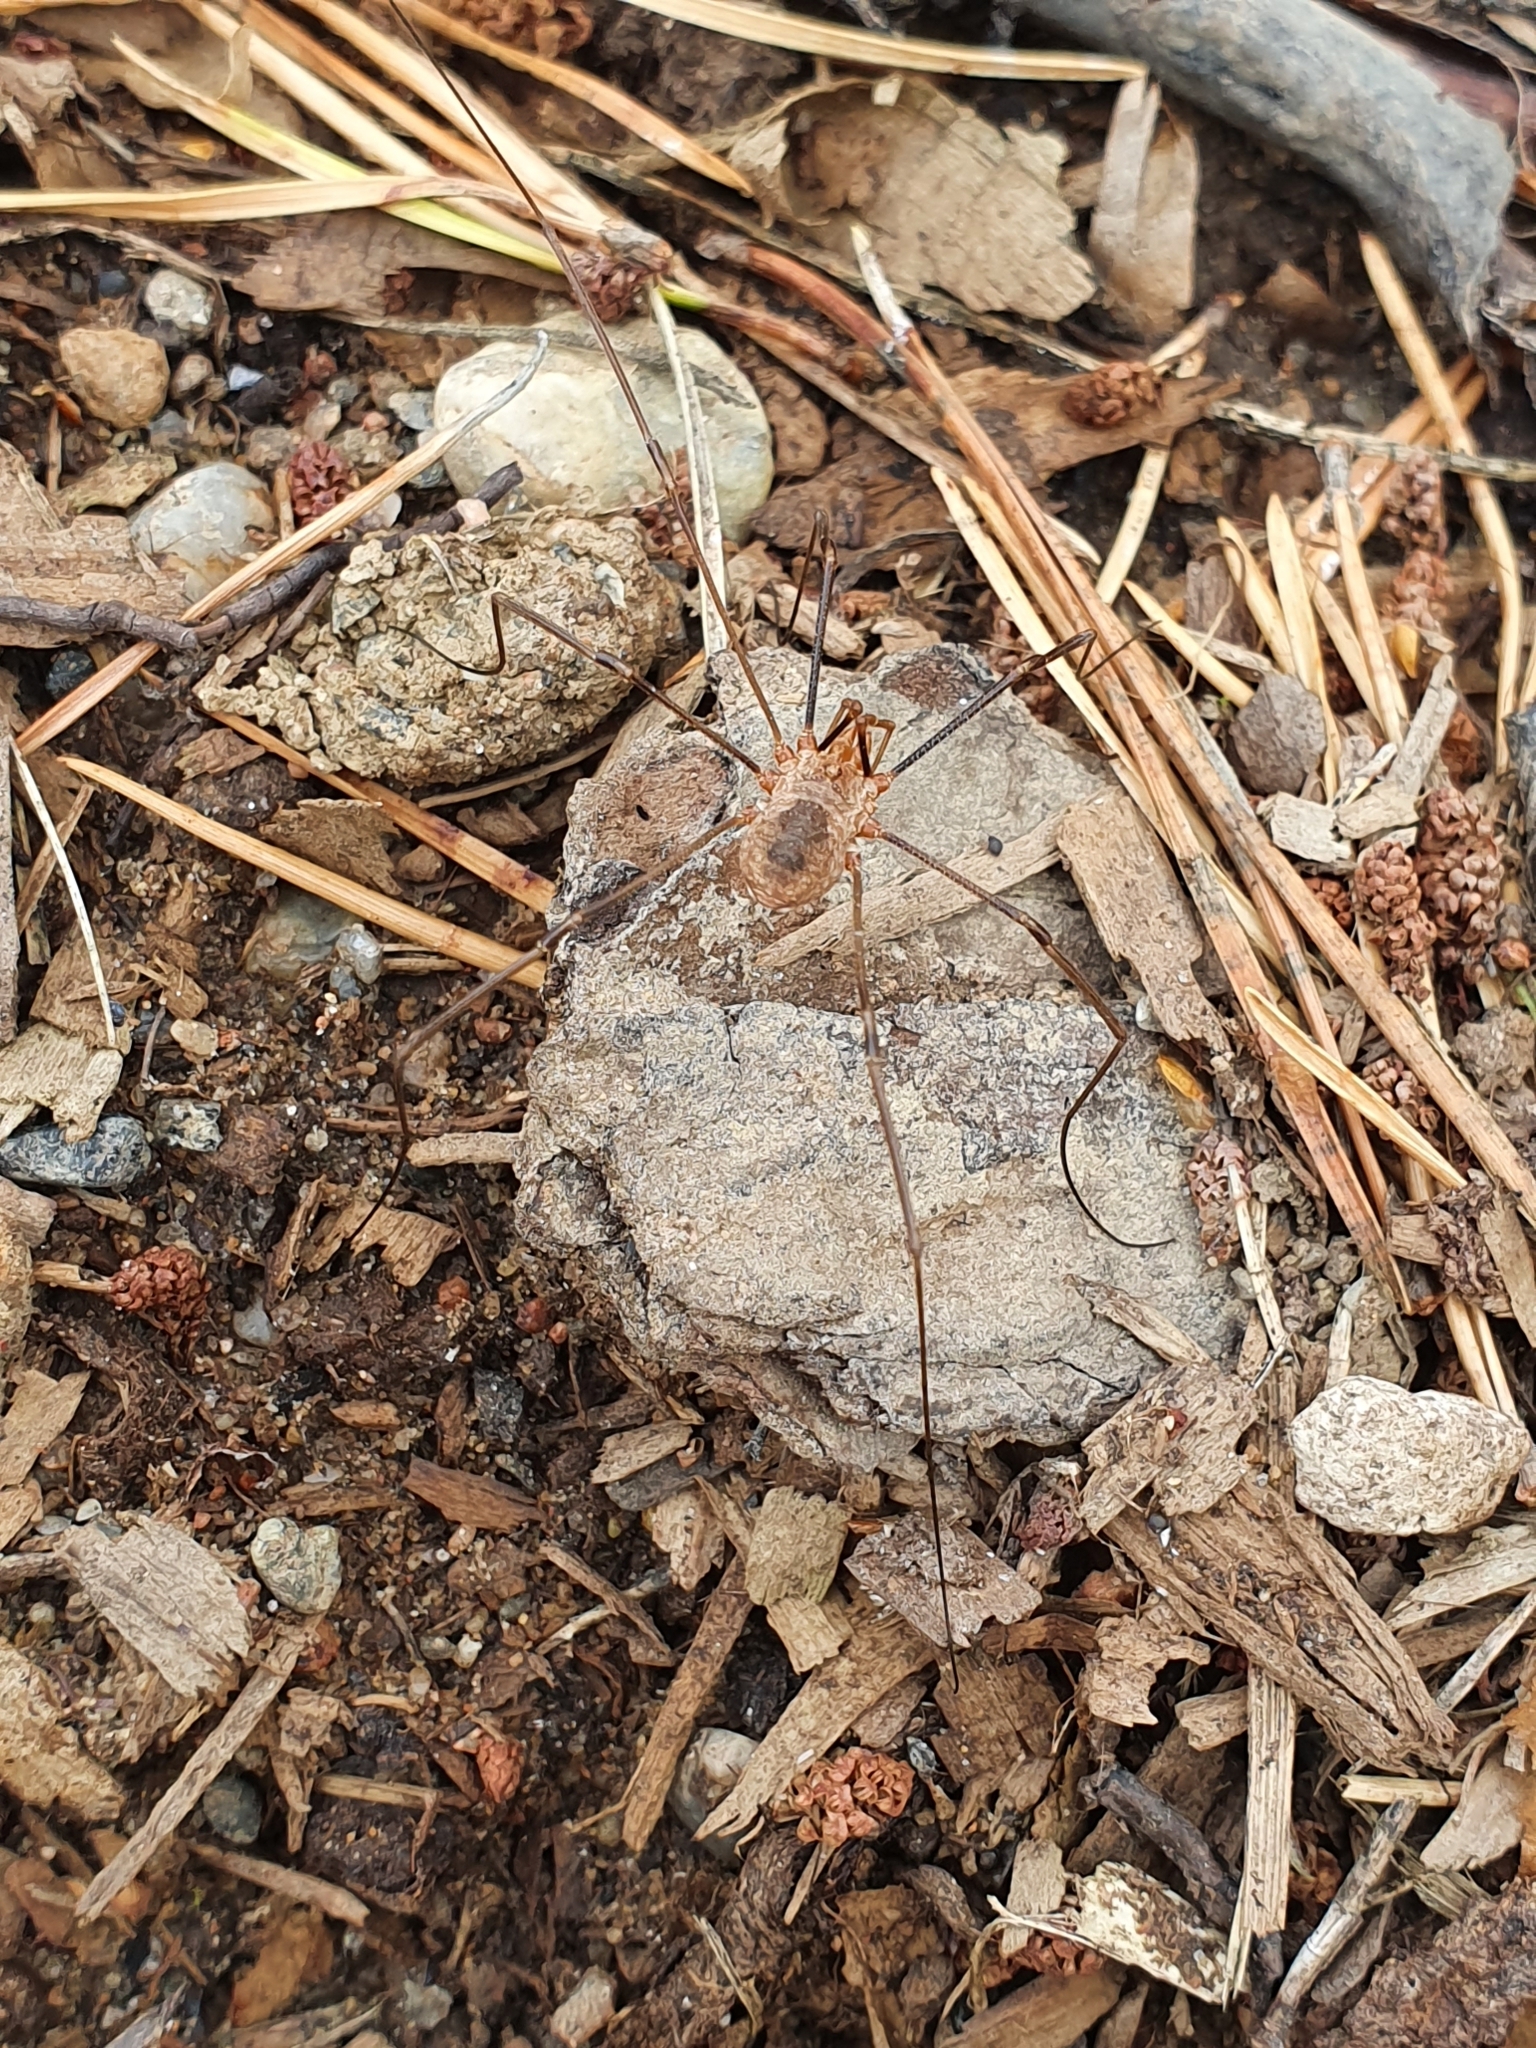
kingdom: Animalia
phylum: Arthropoda
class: Arachnida
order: Opiliones
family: Phalangiidae
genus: Phalangium
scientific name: Phalangium opilio
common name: Daddy longleg
